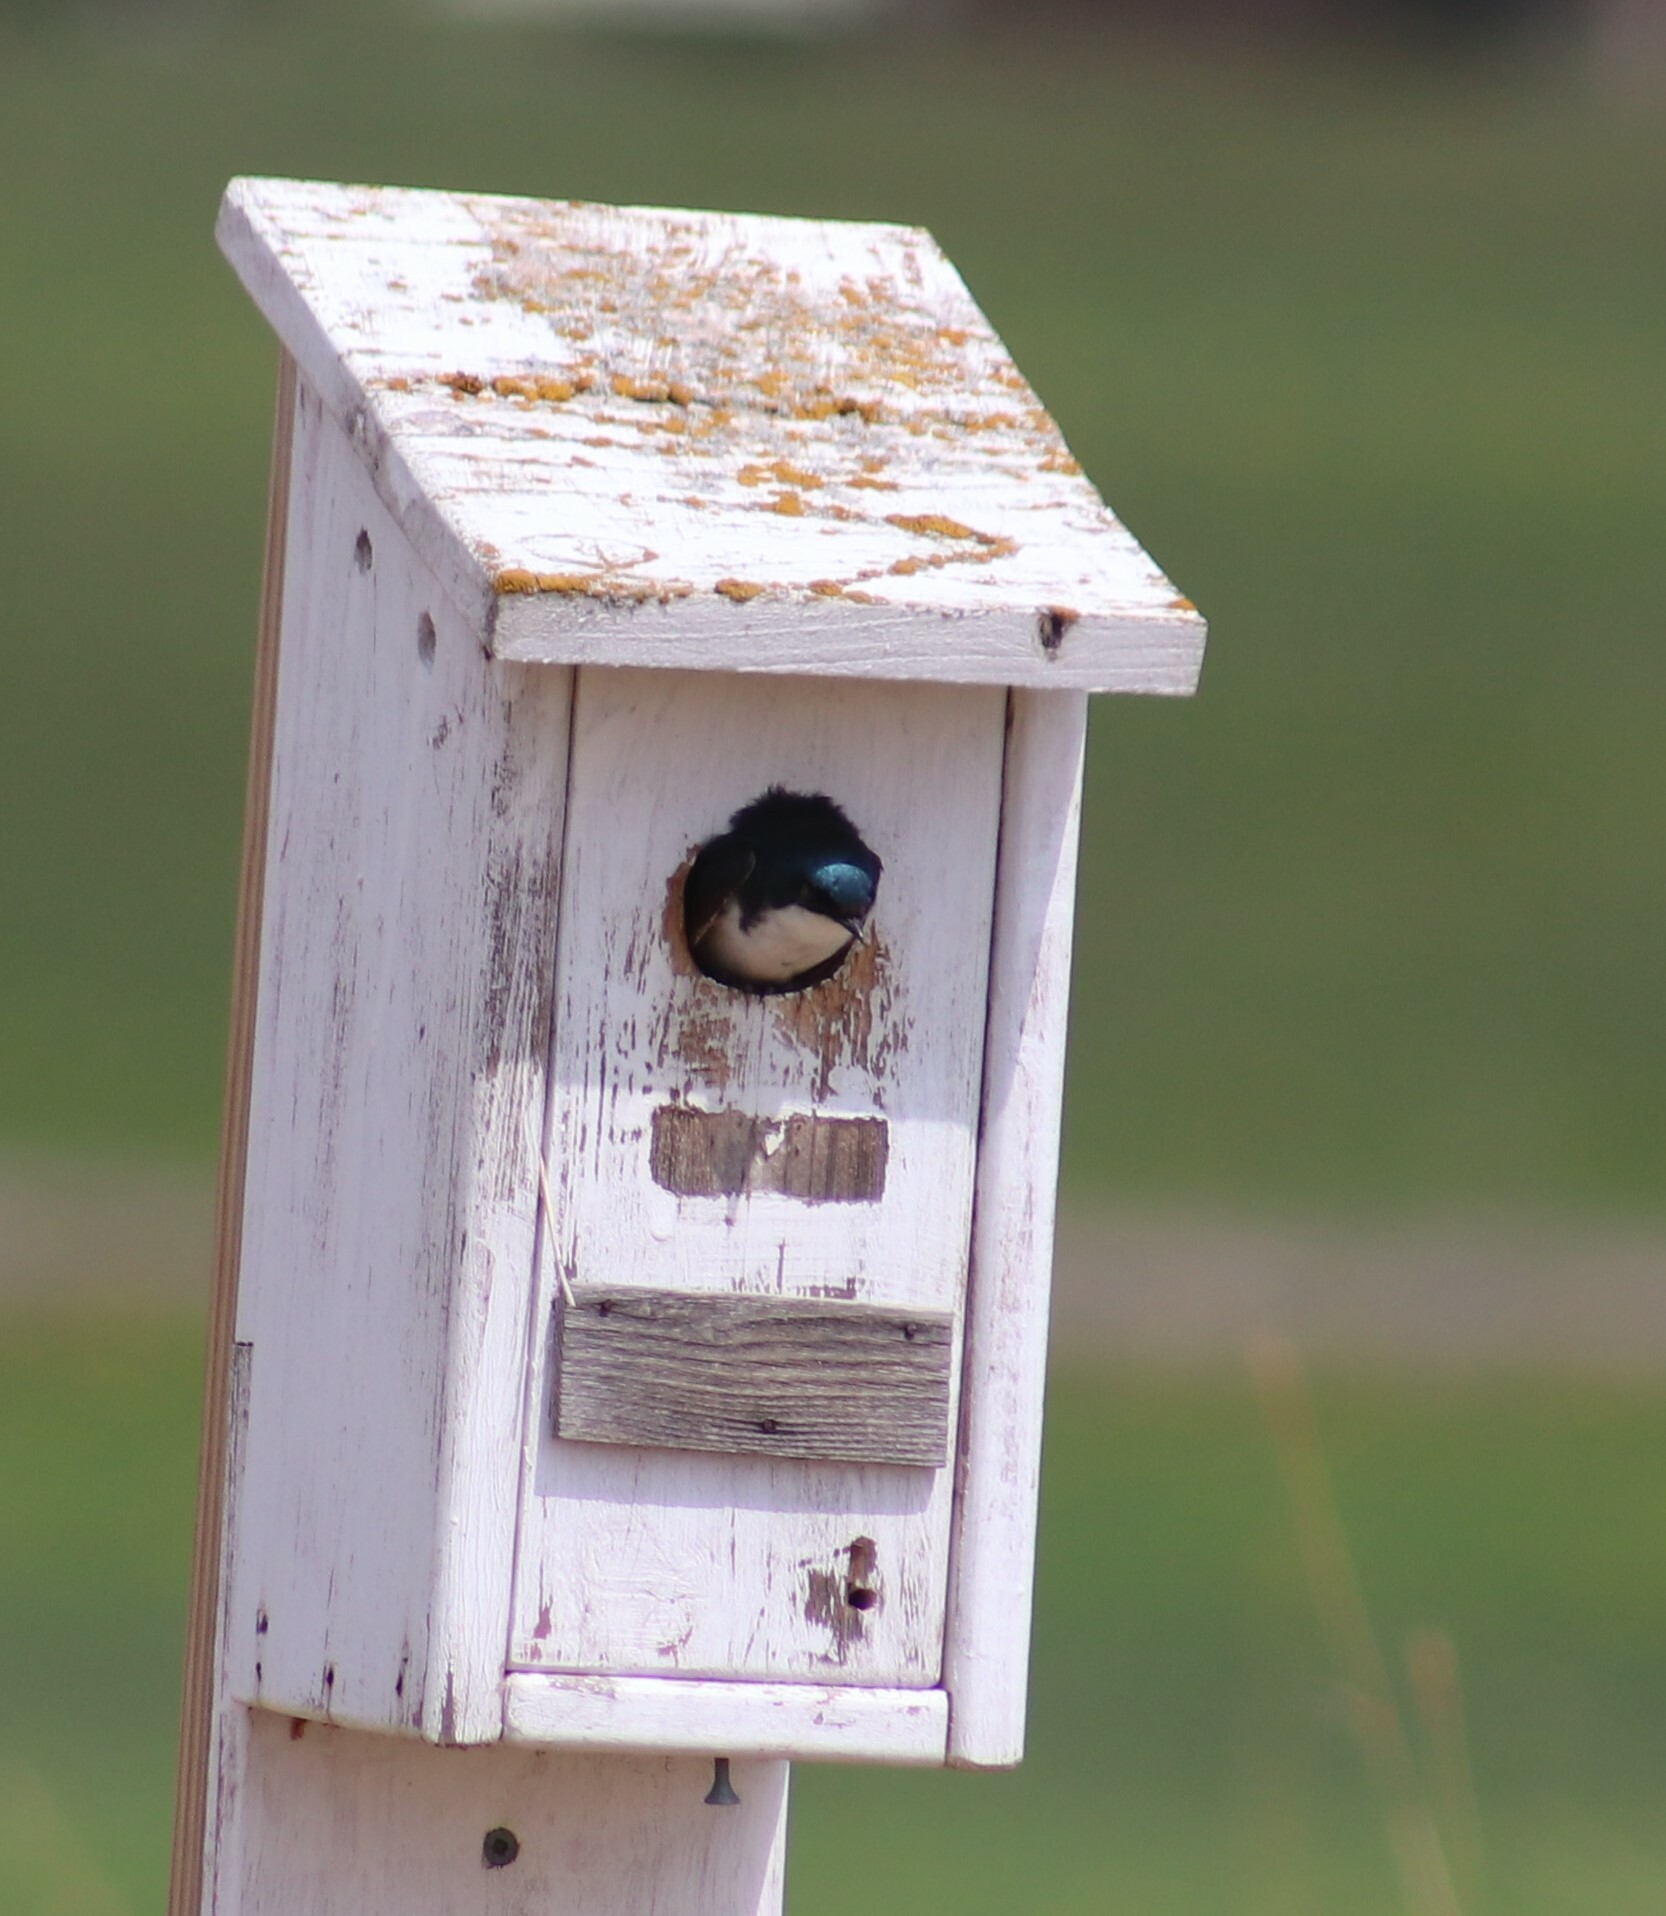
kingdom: Animalia
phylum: Chordata
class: Aves
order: Passeriformes
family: Hirundinidae
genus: Tachycineta
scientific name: Tachycineta bicolor
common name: Tree swallow
